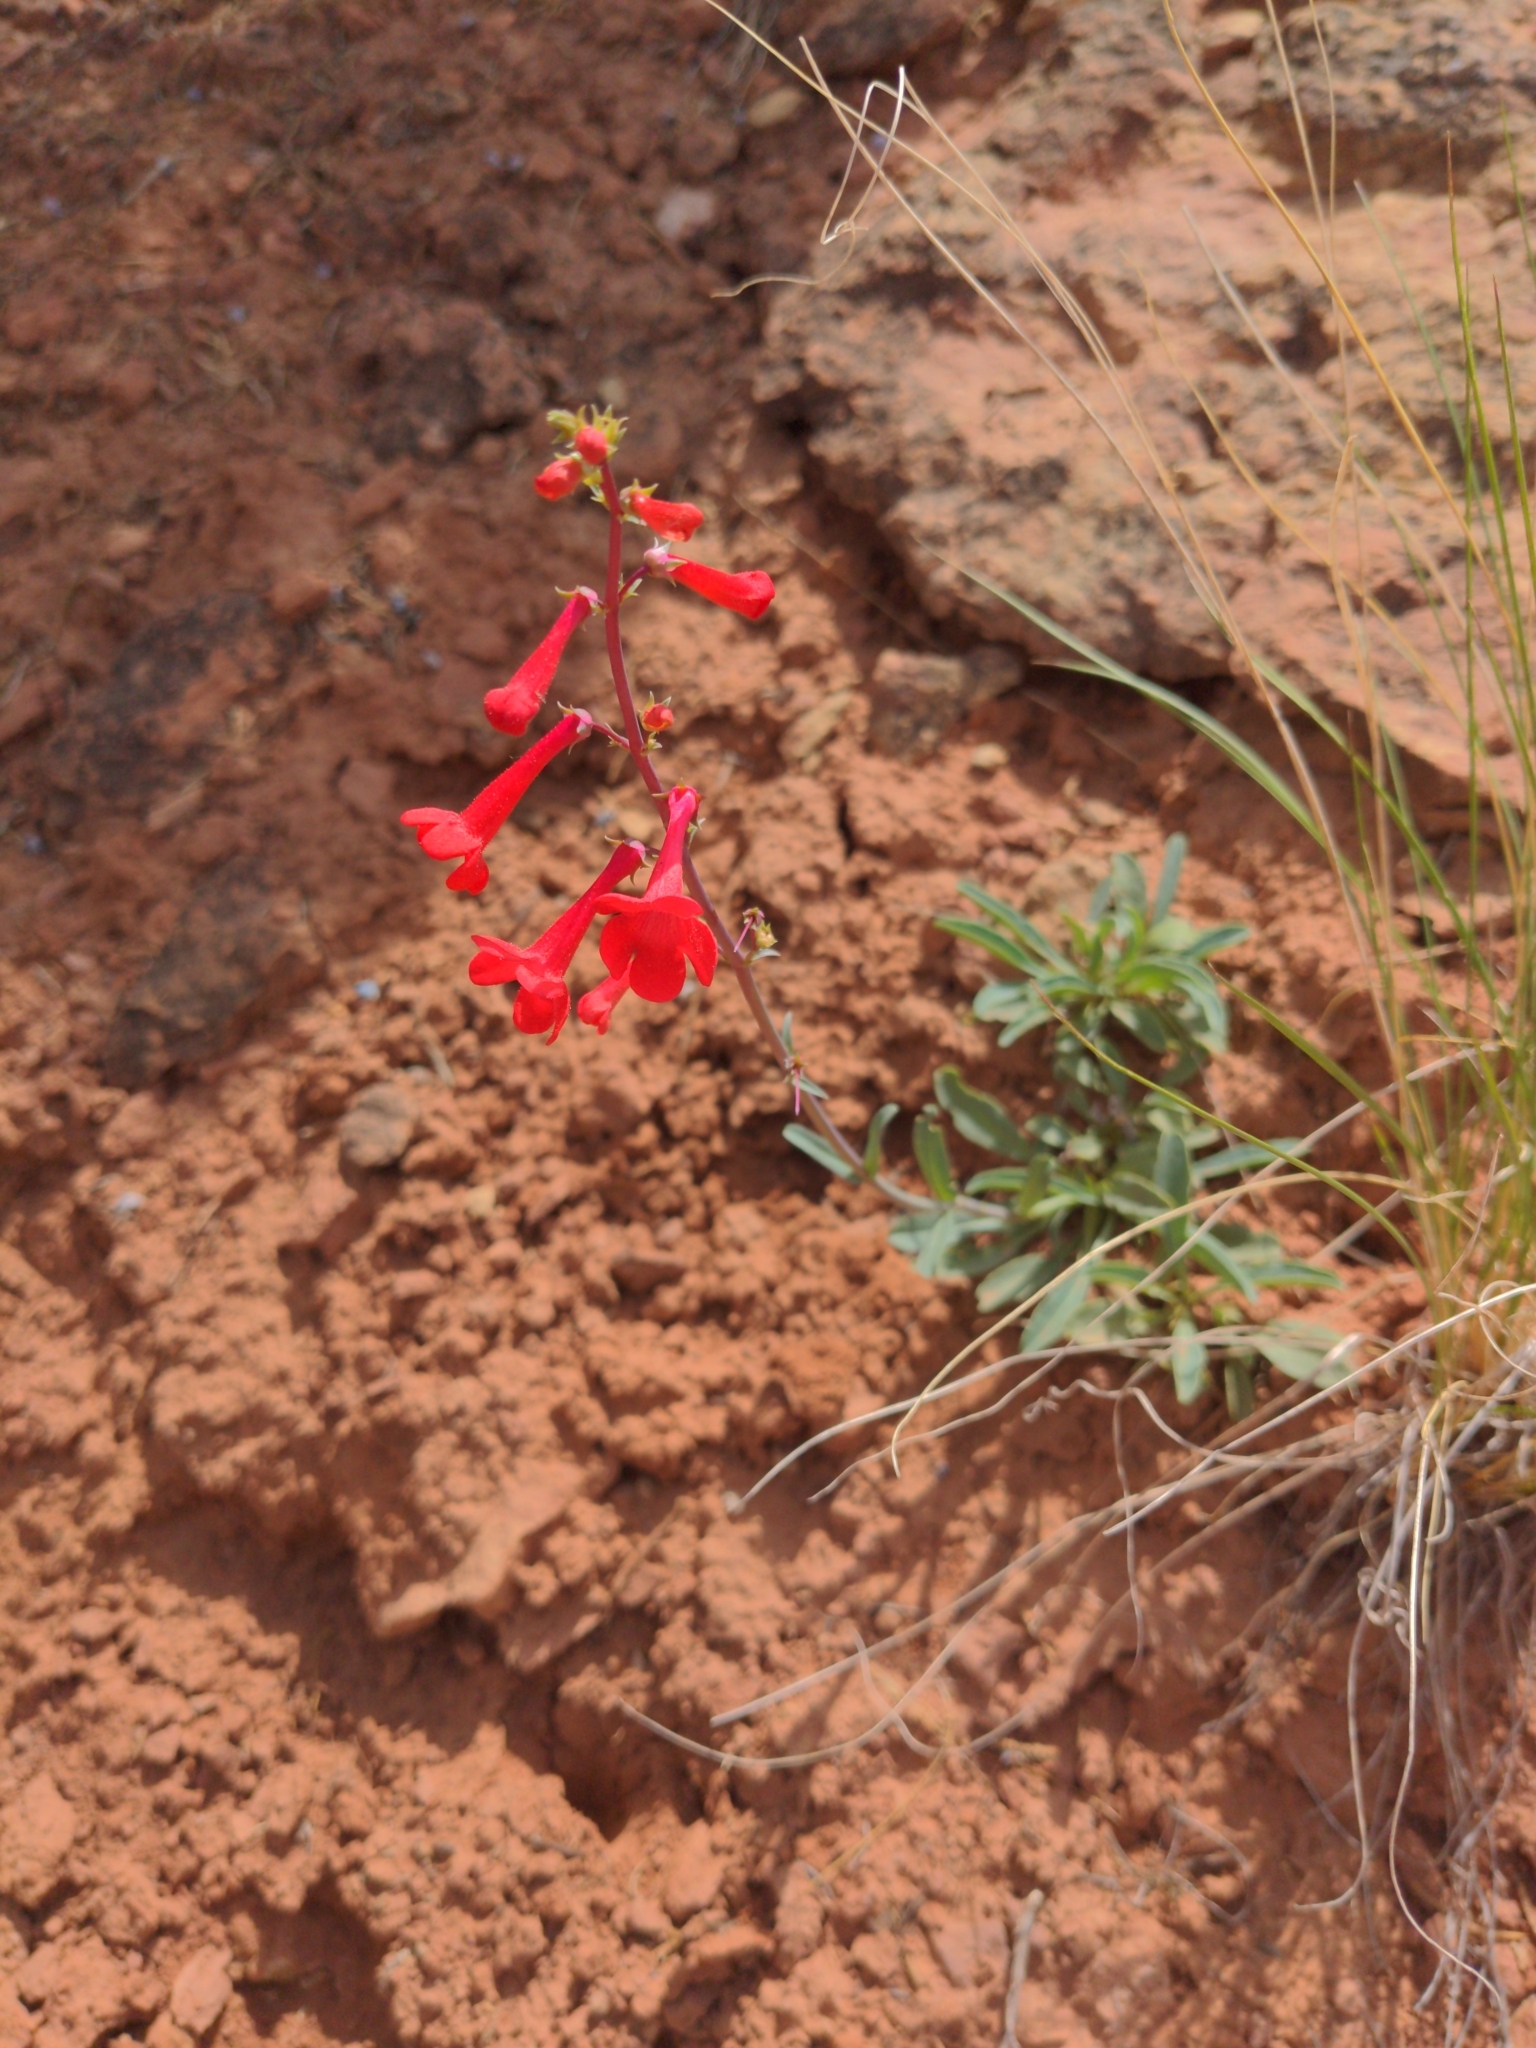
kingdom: Plantae
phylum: Tracheophyta
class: Magnoliopsida
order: Lamiales
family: Plantaginaceae
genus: Penstemon
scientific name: Penstemon utahensis
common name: Utah penstemon
